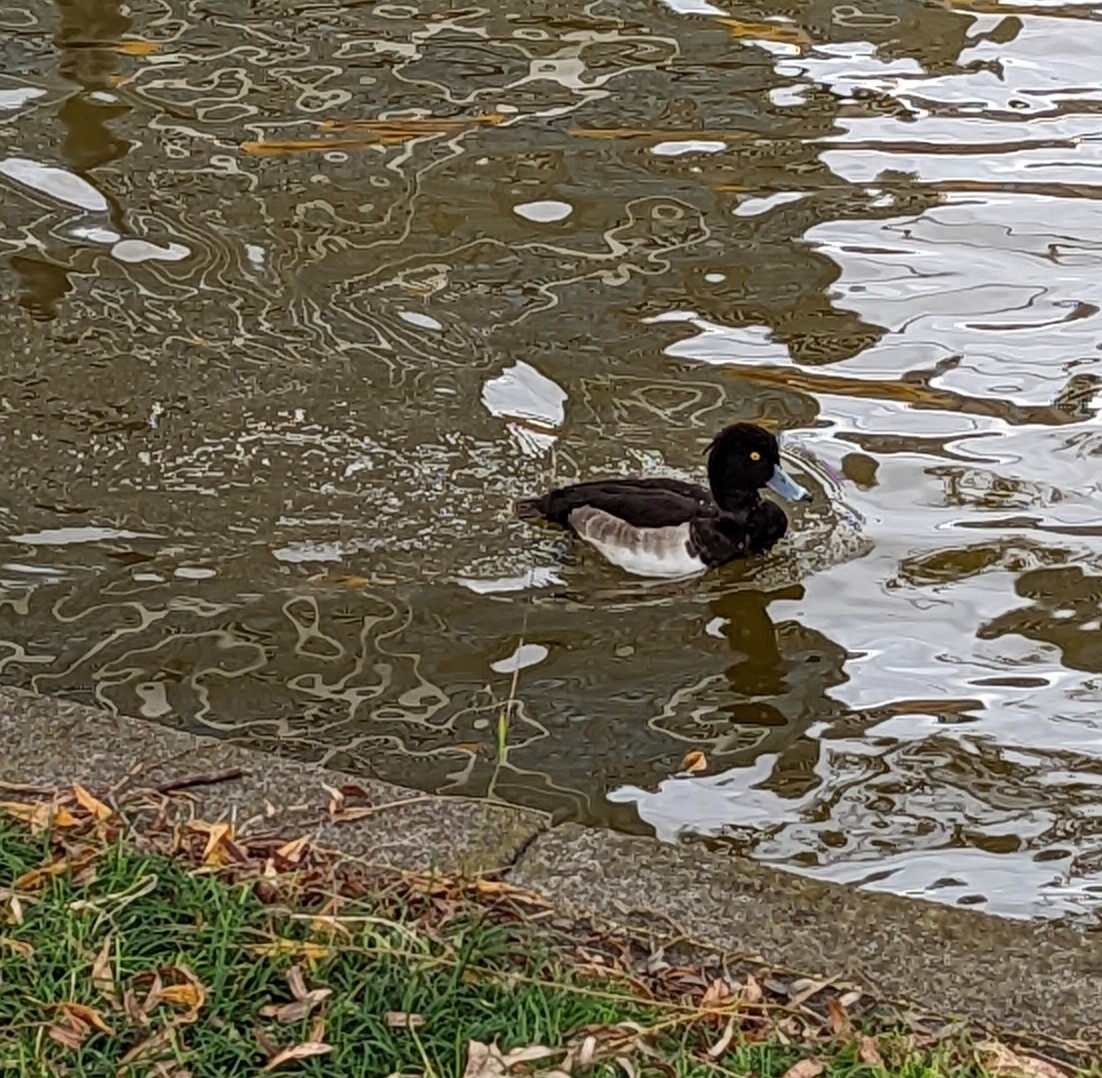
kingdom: Animalia
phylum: Chordata
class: Aves
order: Anseriformes
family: Anatidae
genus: Aythya
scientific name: Aythya fuligula
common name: Tufted duck
